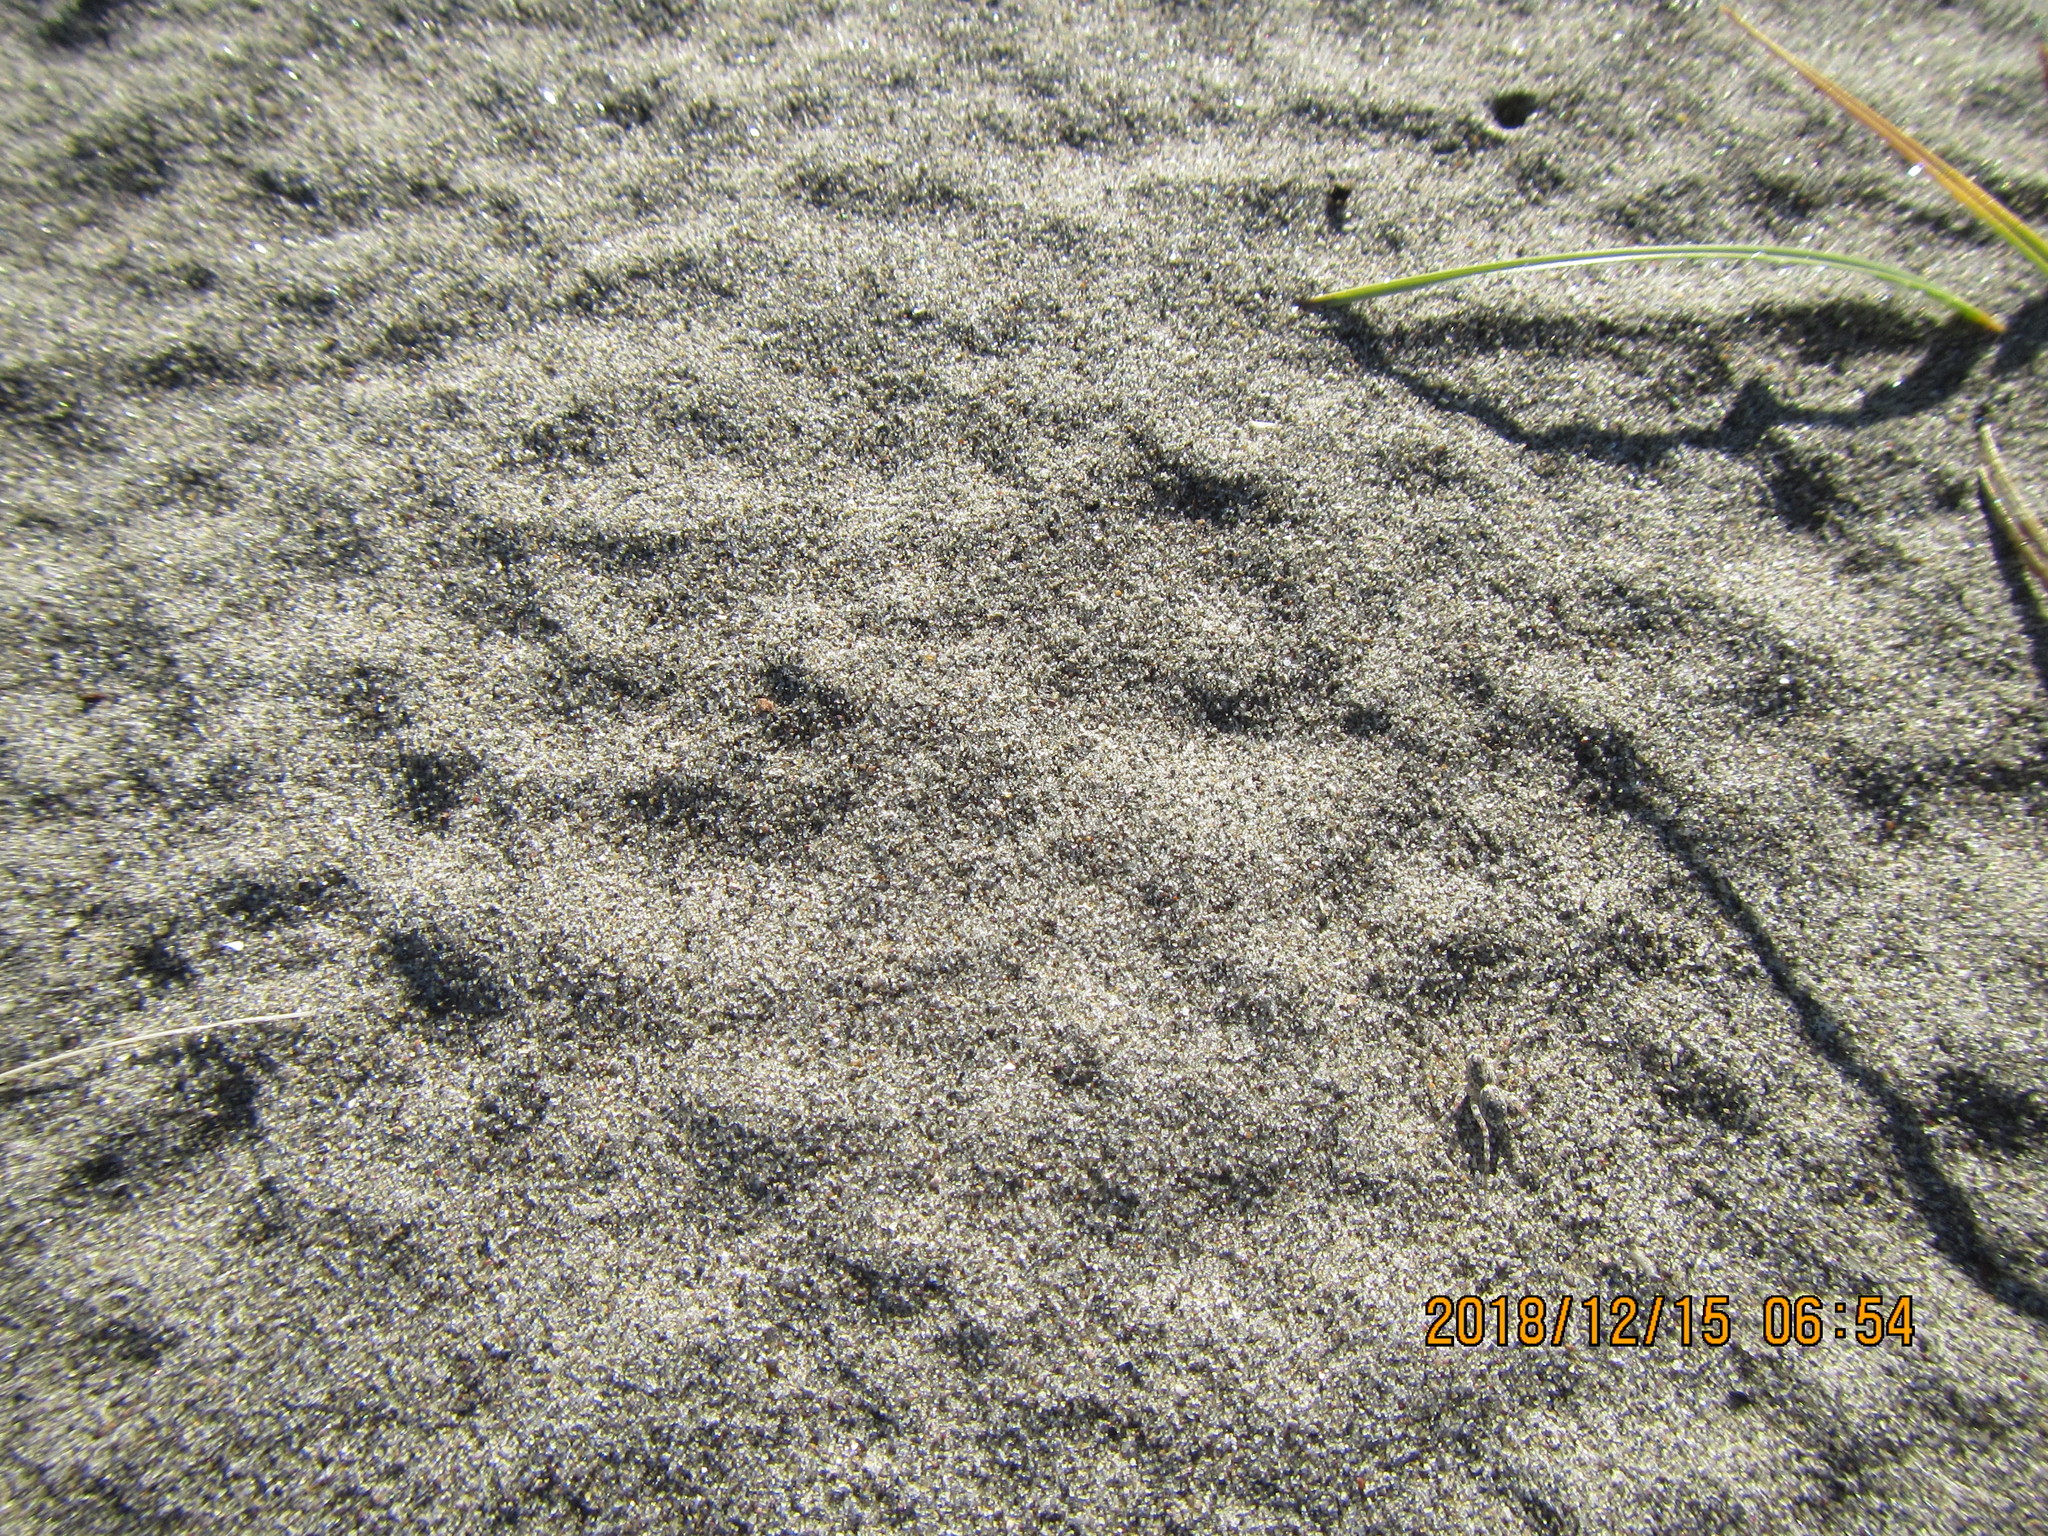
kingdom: Animalia
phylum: Arthropoda
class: Arachnida
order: Araneae
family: Lycosidae
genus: Anoteropsis
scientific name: Anoteropsis litoralis
